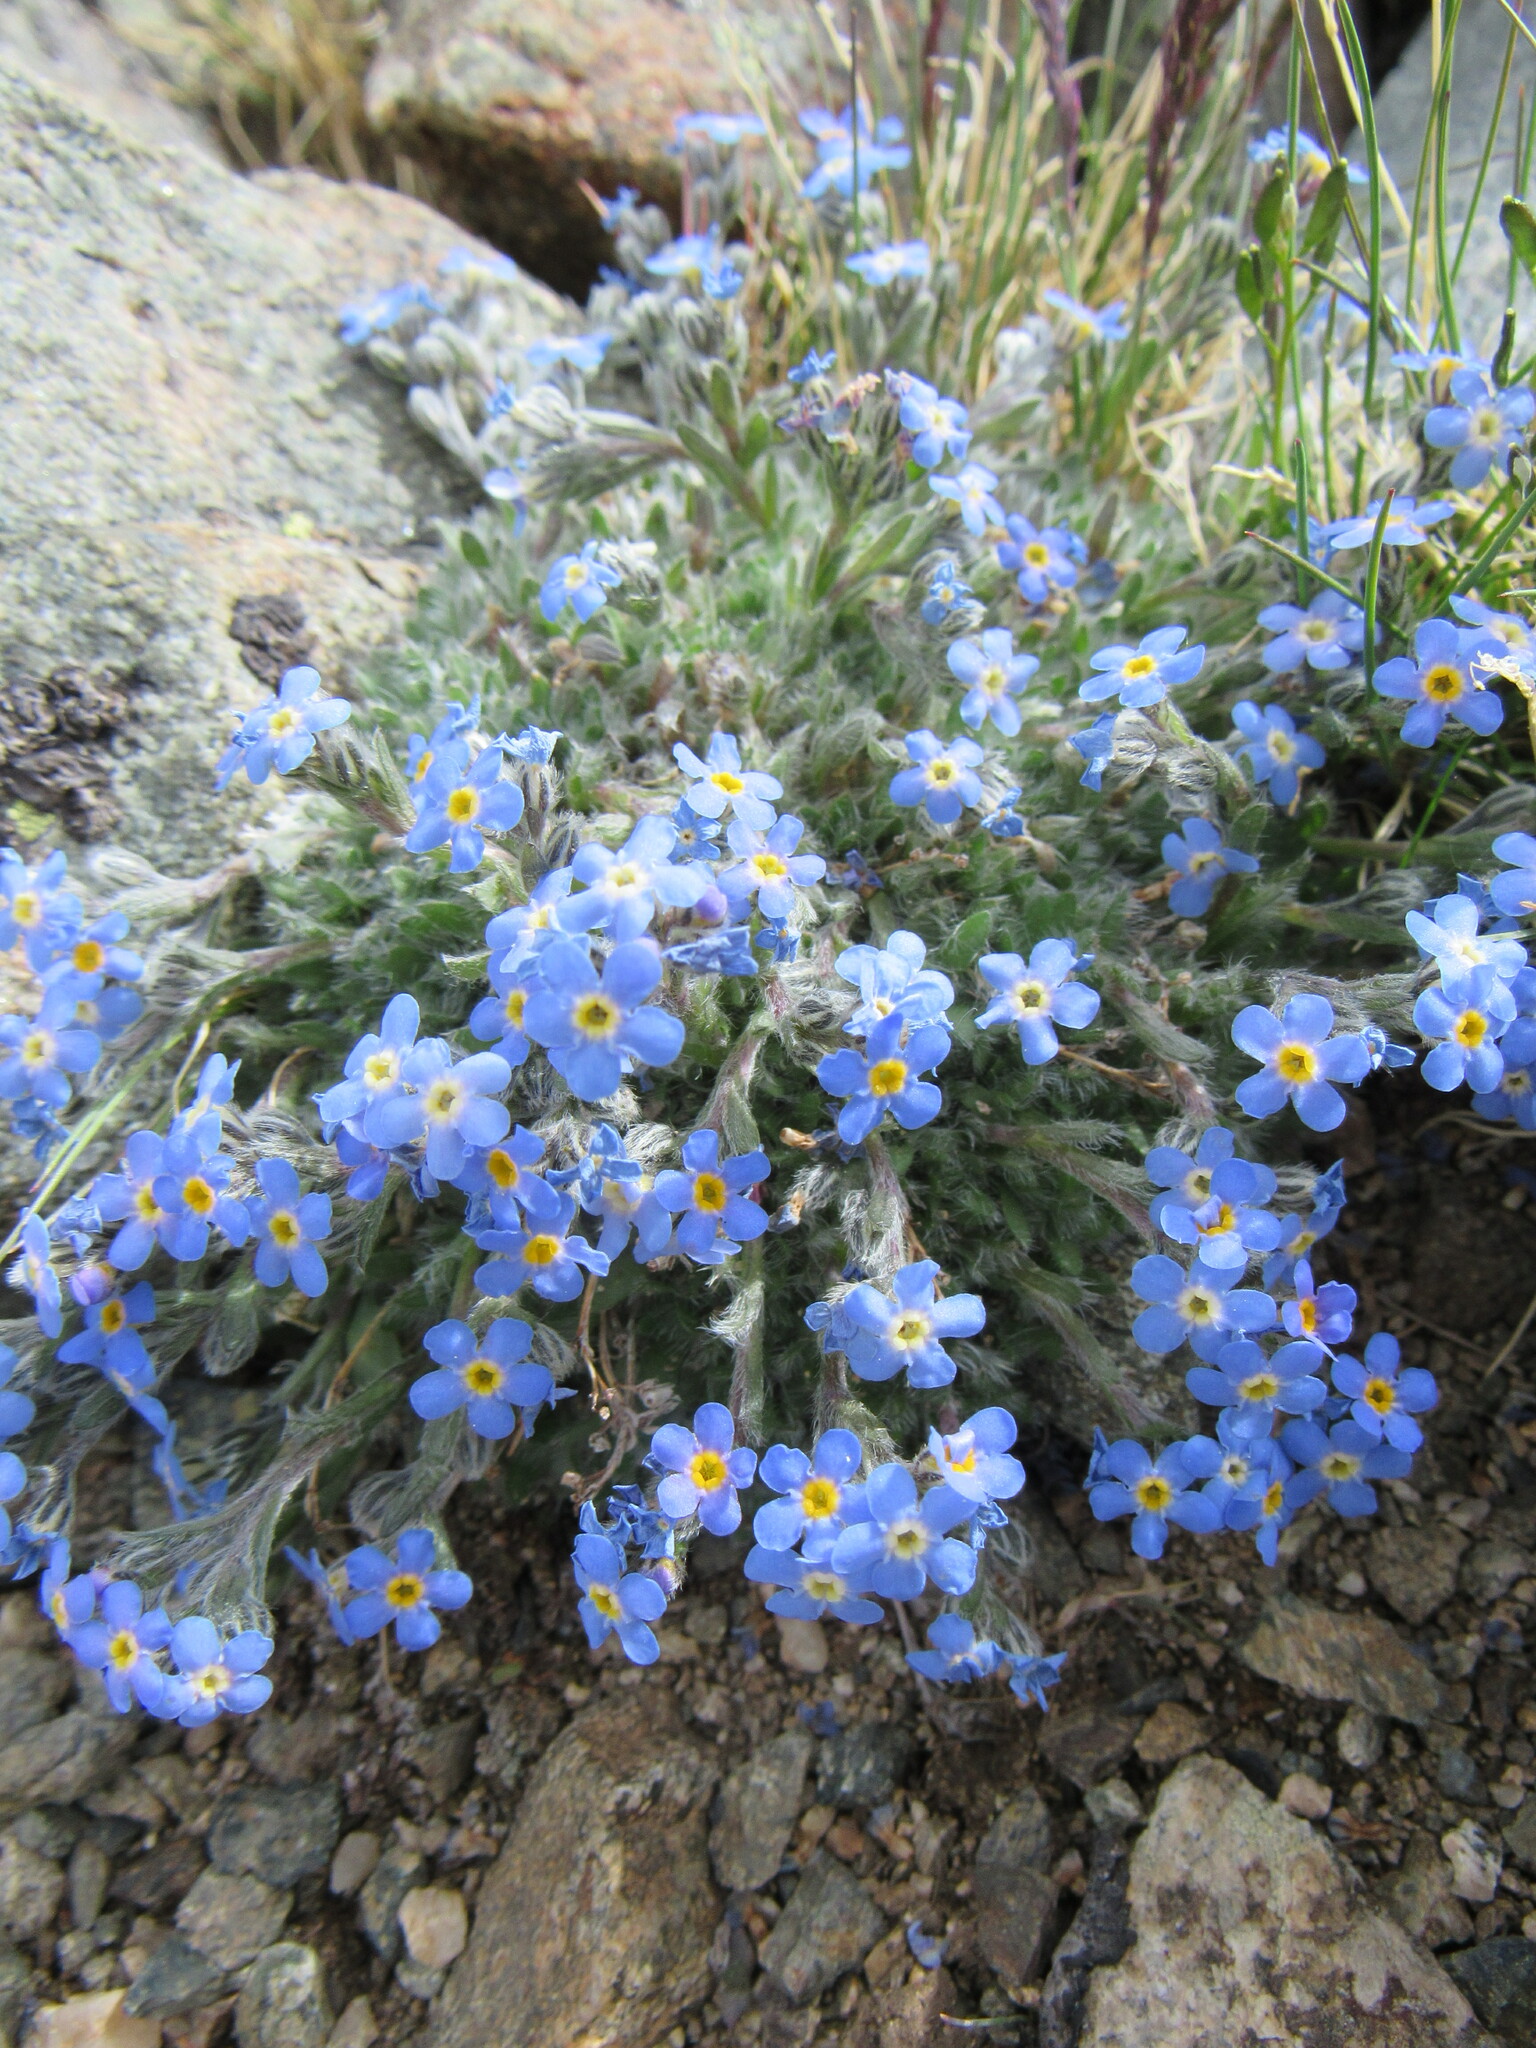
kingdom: Plantae
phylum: Tracheophyta
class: Magnoliopsida
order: Boraginales
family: Boraginaceae
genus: Eritrichium
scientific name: Eritrichium argenteum
